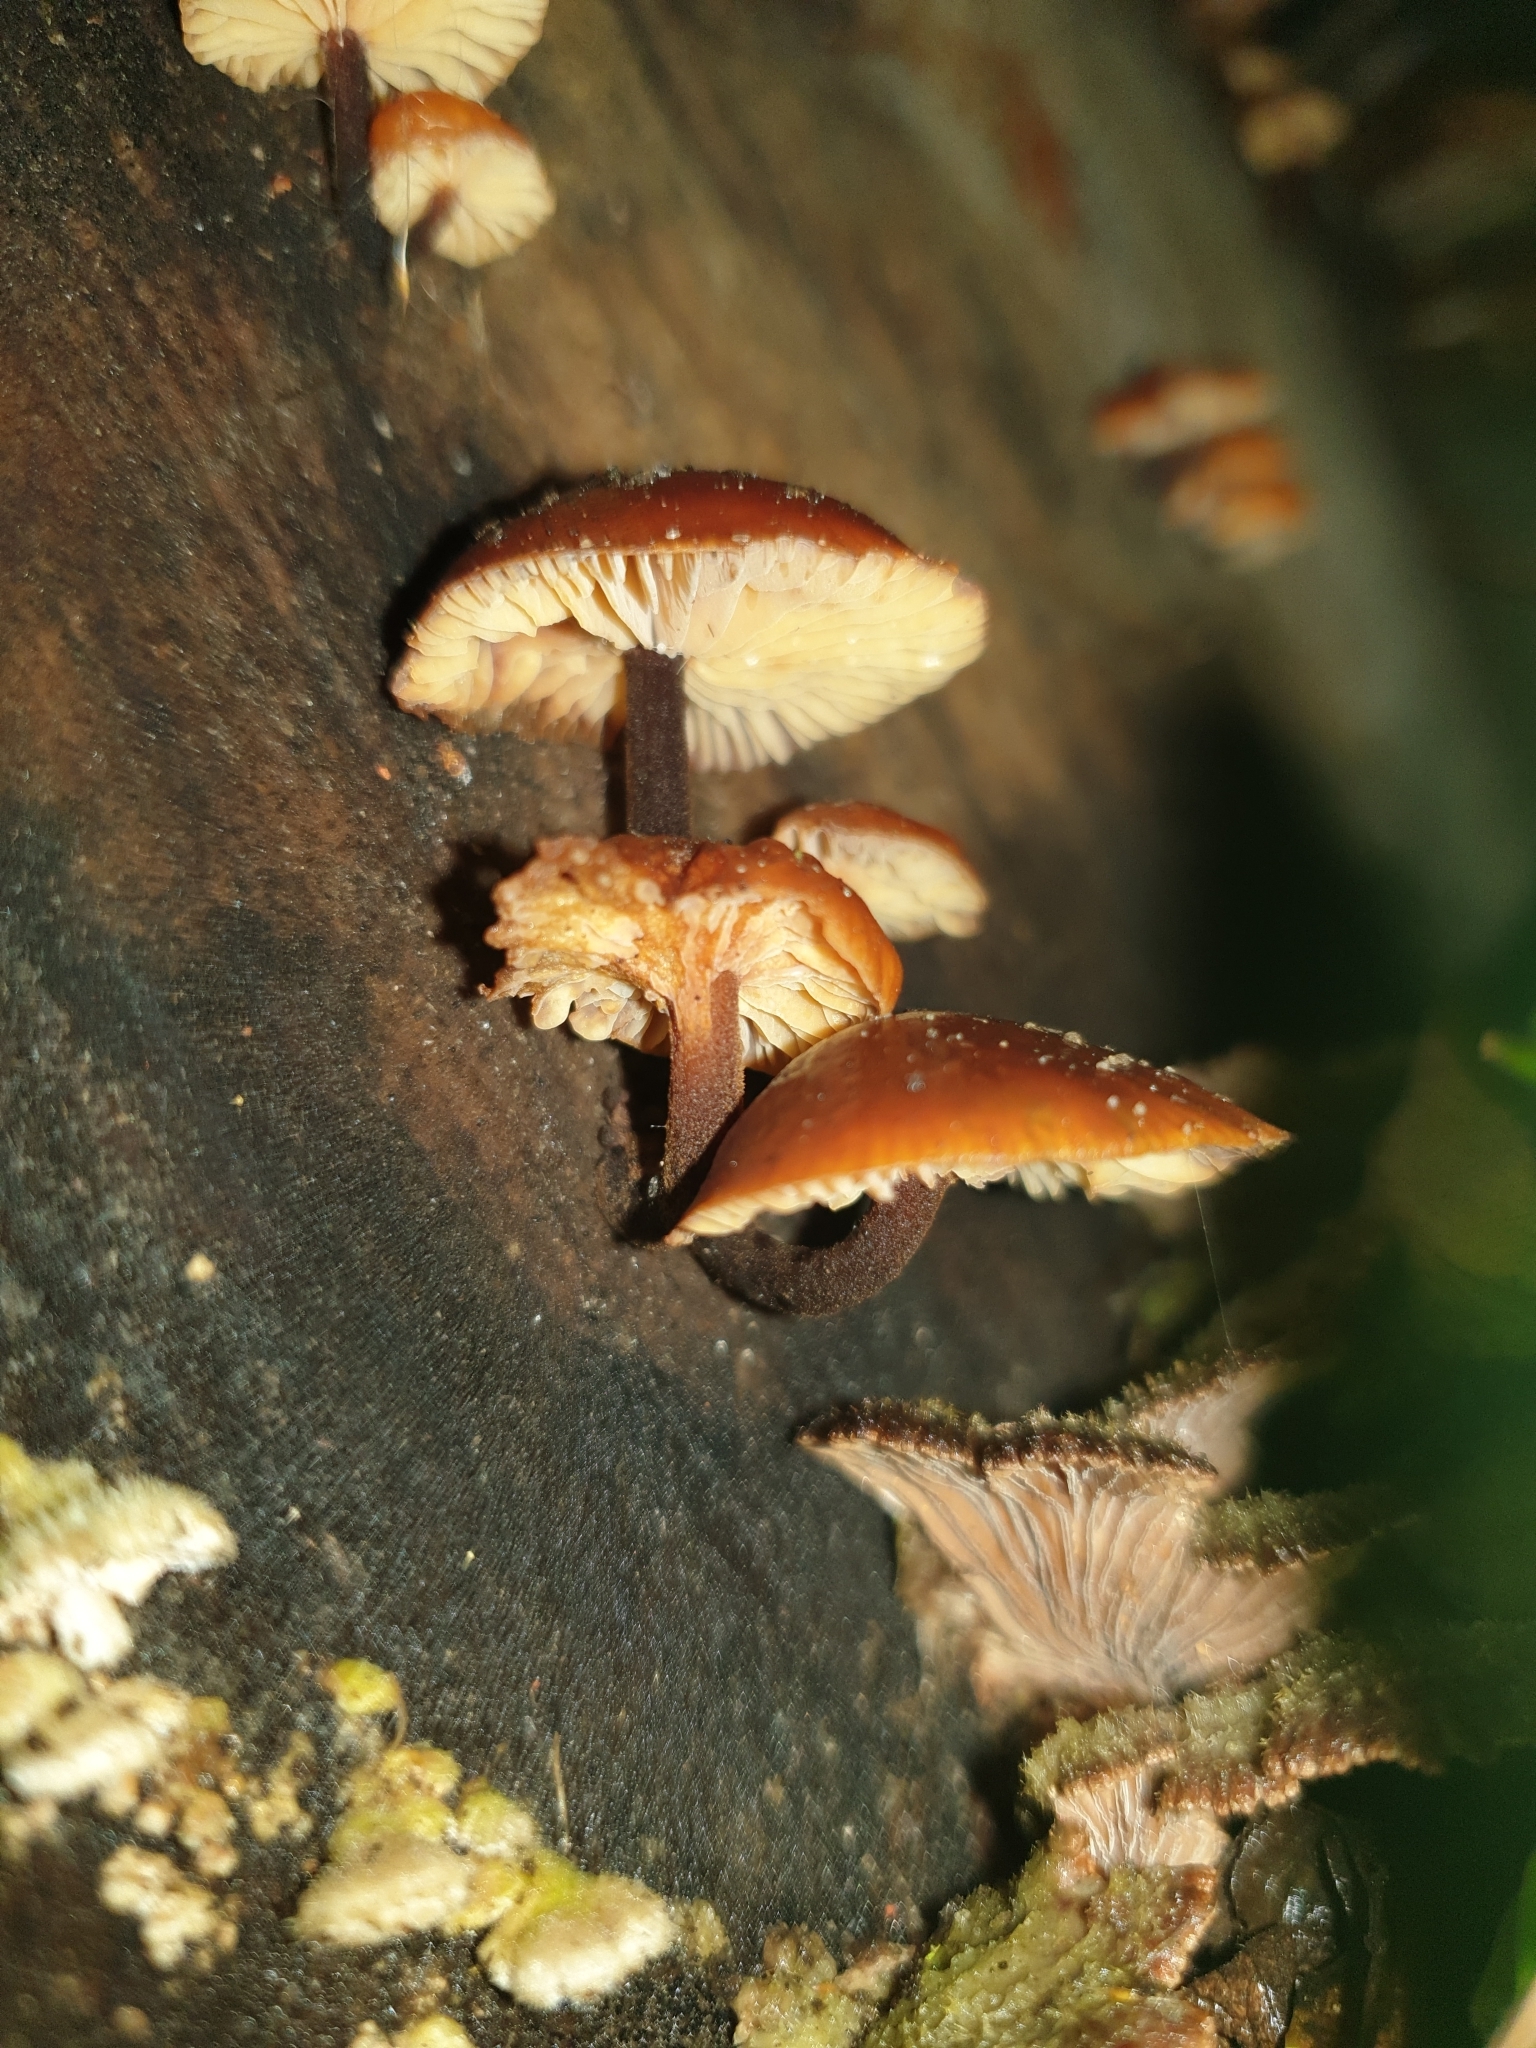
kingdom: Fungi
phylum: Basidiomycota
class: Agaricomycetes
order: Agaricales
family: Physalacriaceae
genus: Flammulina
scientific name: Flammulina
